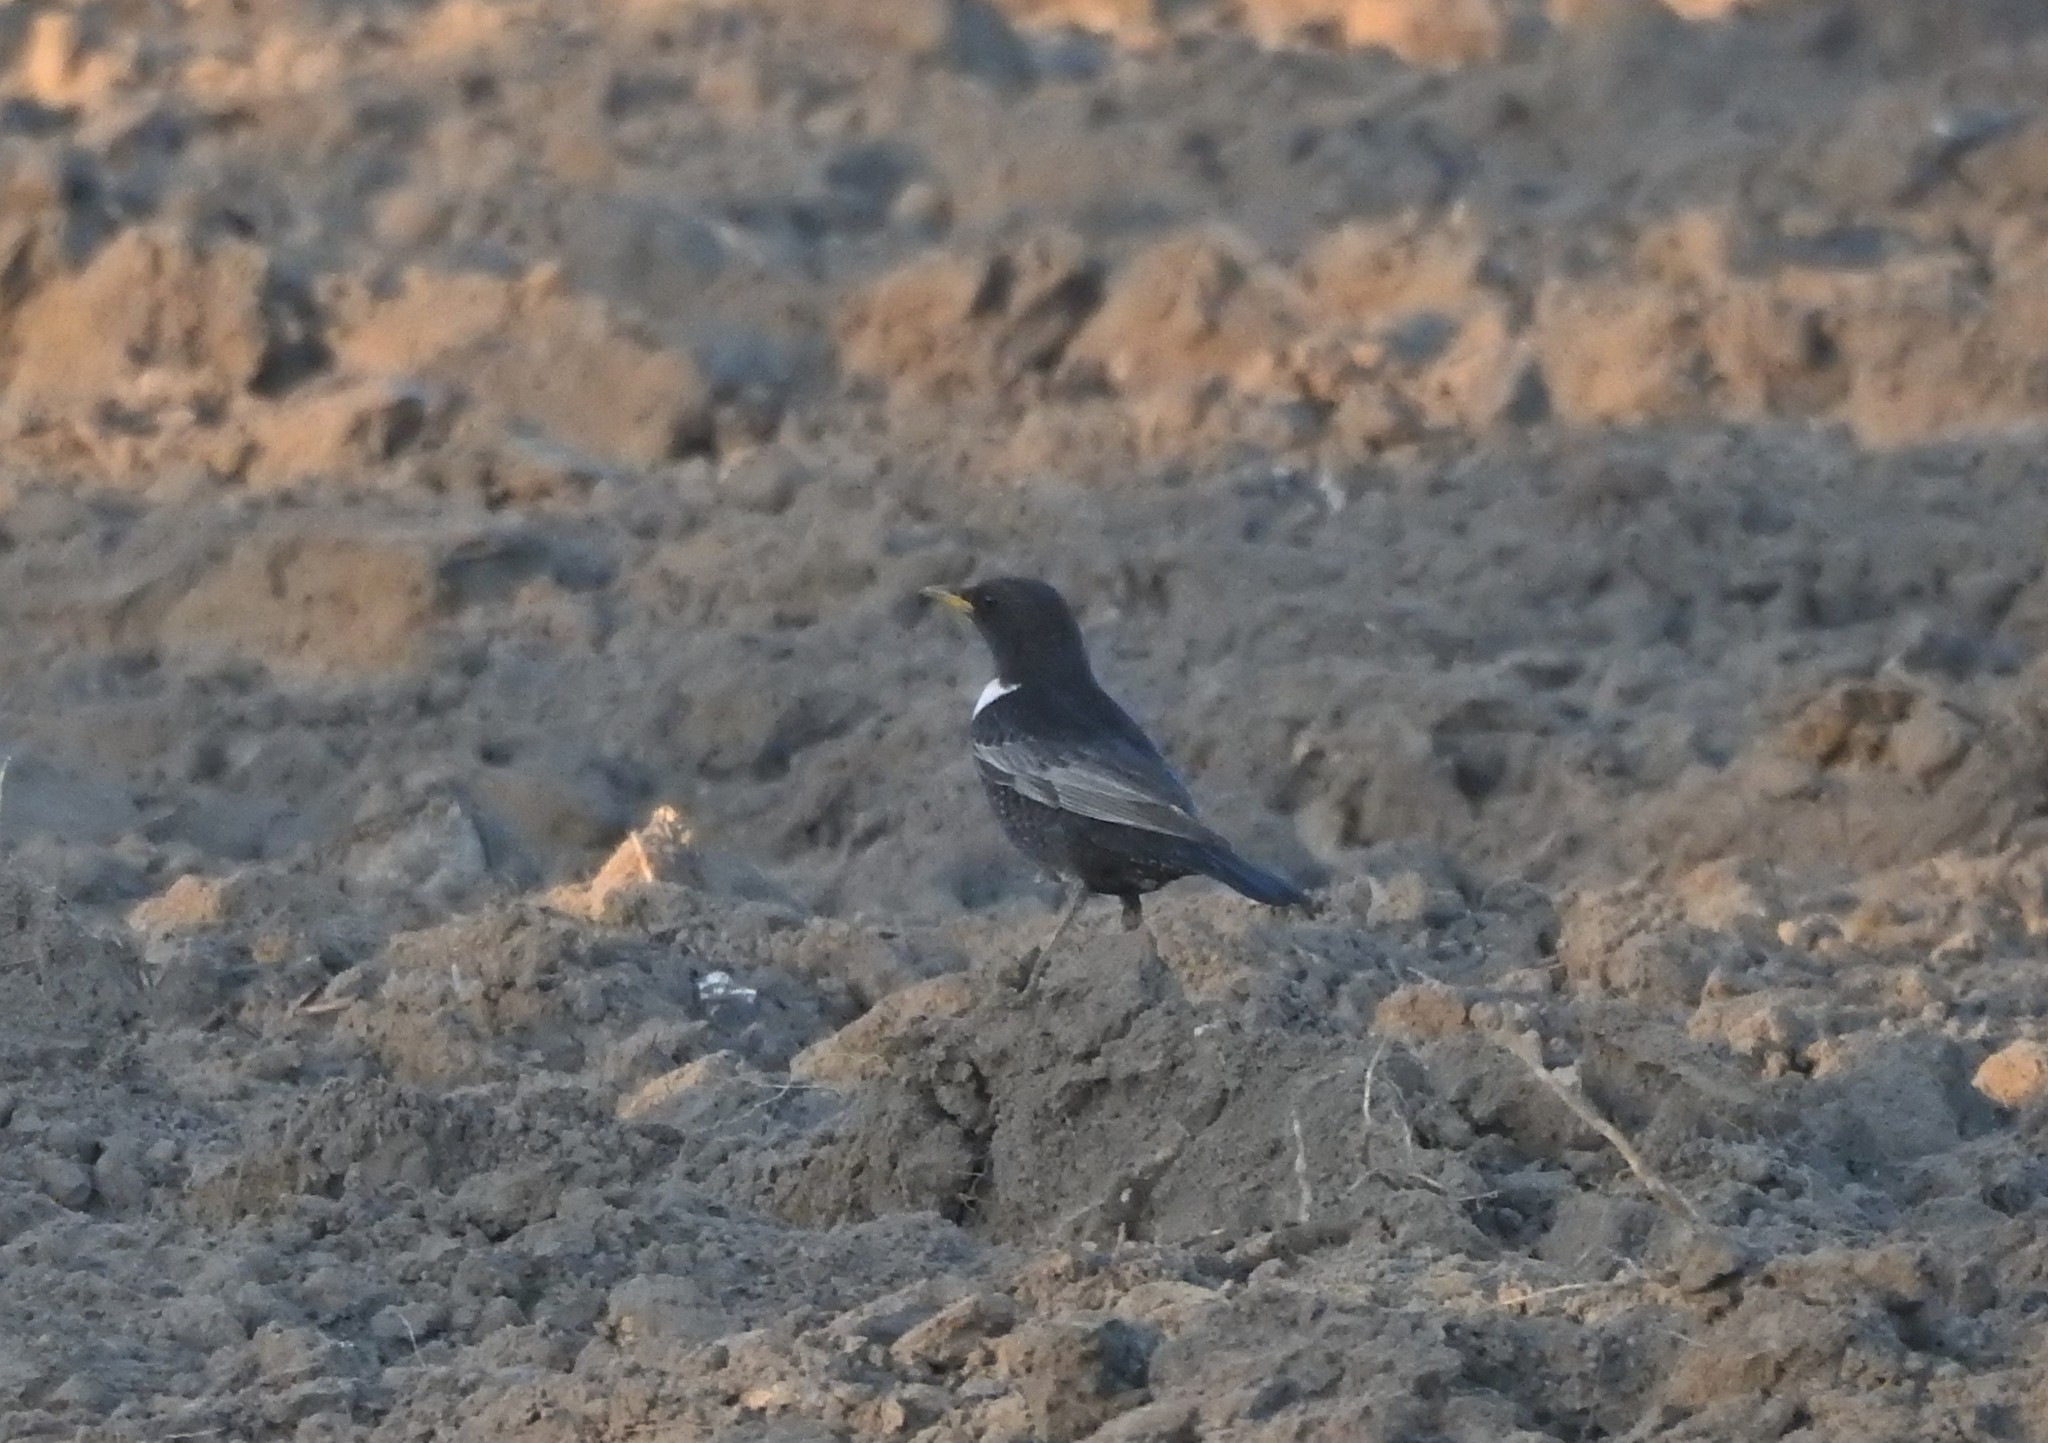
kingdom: Animalia
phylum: Chordata
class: Aves
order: Passeriformes
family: Turdidae
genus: Turdus
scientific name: Turdus torquatus
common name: Ring ouzel
